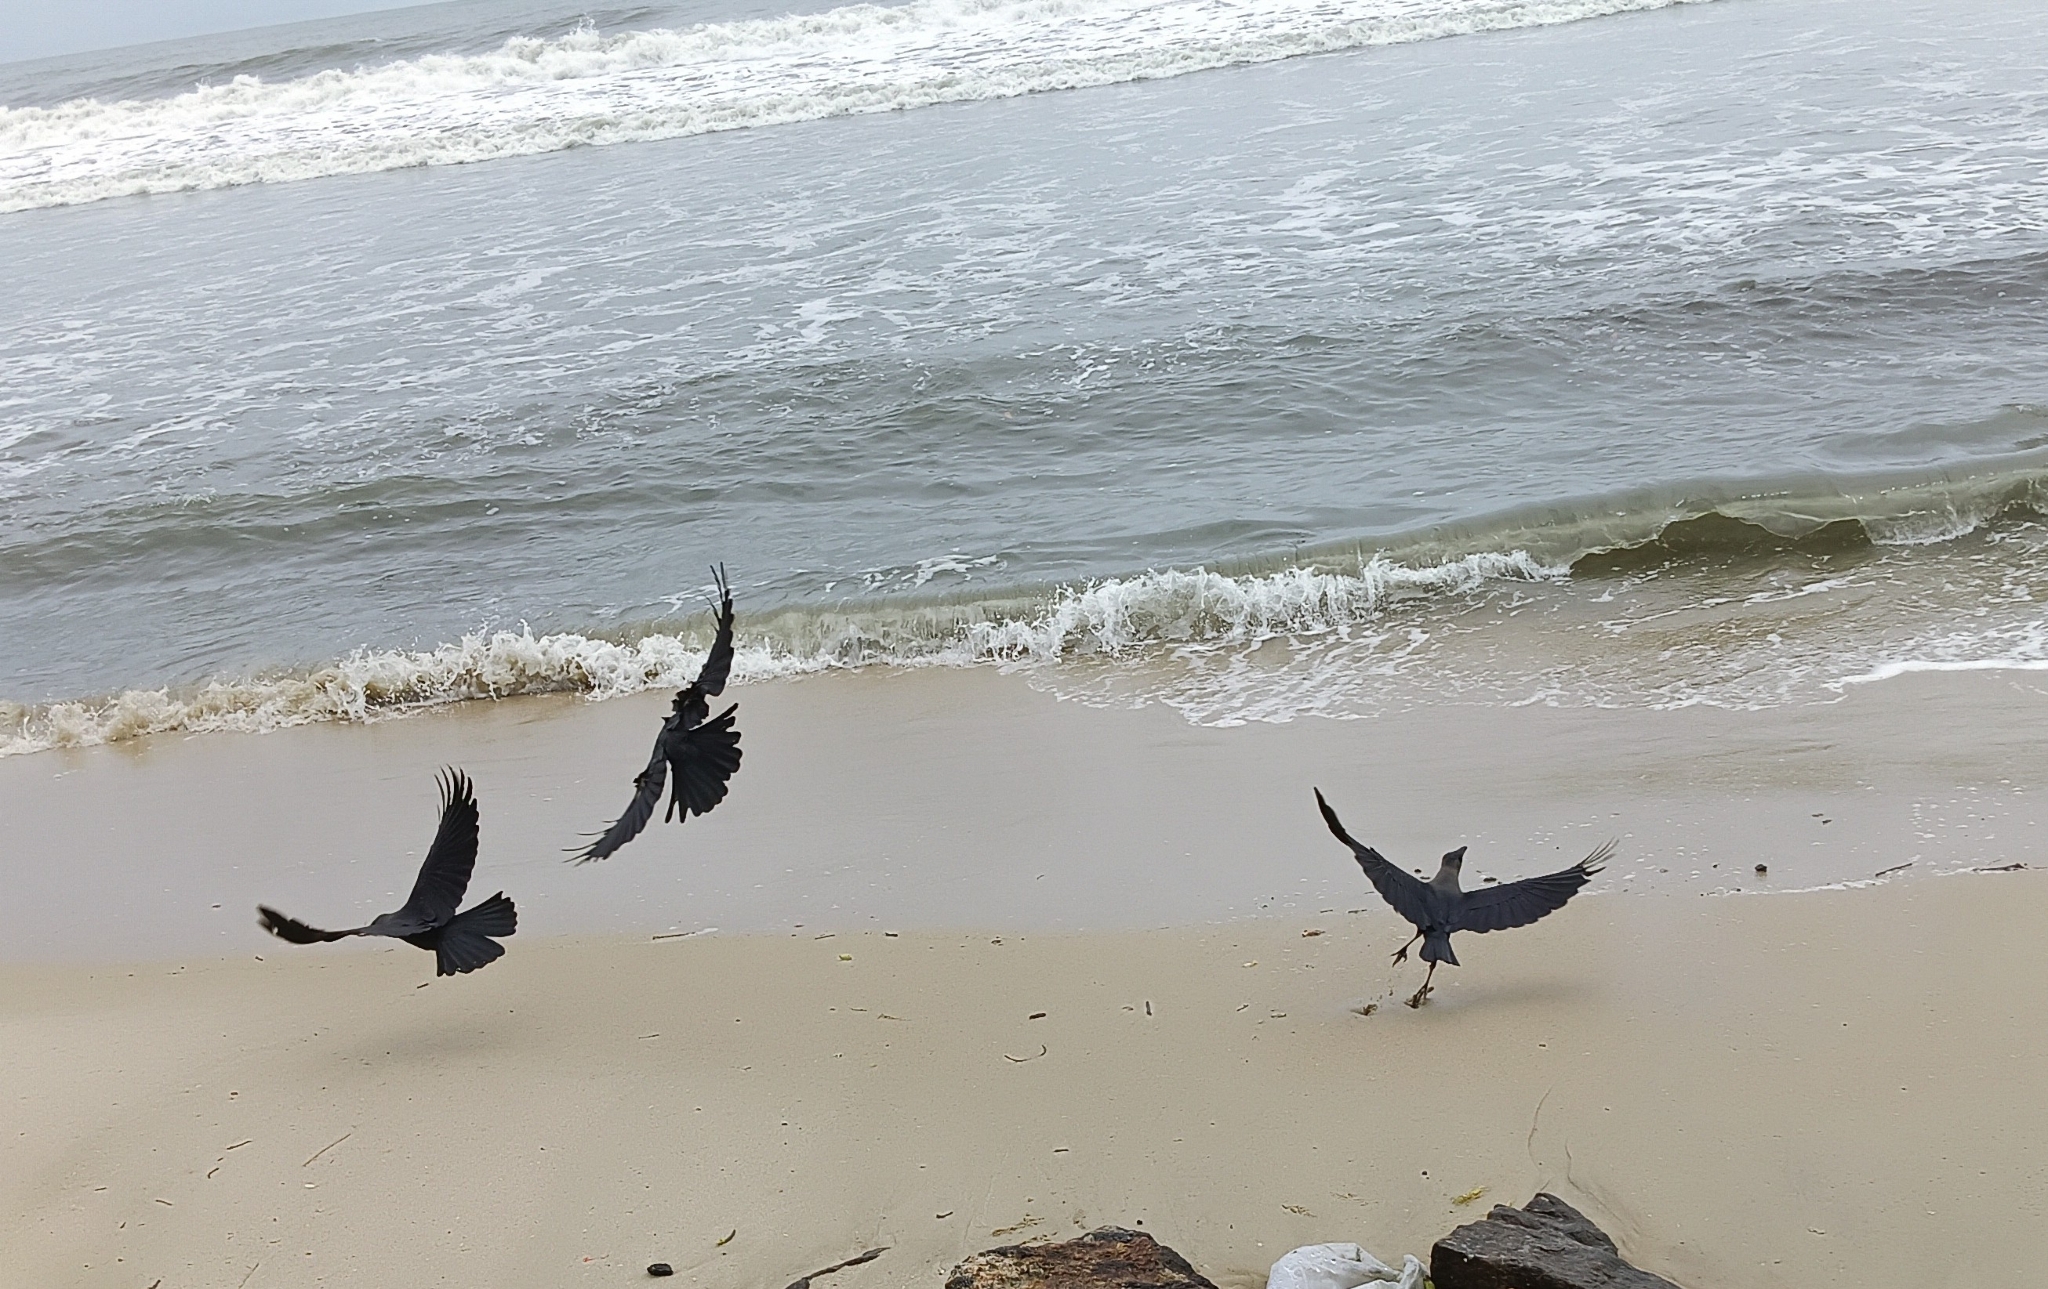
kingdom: Animalia
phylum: Chordata
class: Aves
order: Passeriformes
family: Corvidae
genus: Corvus
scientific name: Corvus splendens
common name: House crow
